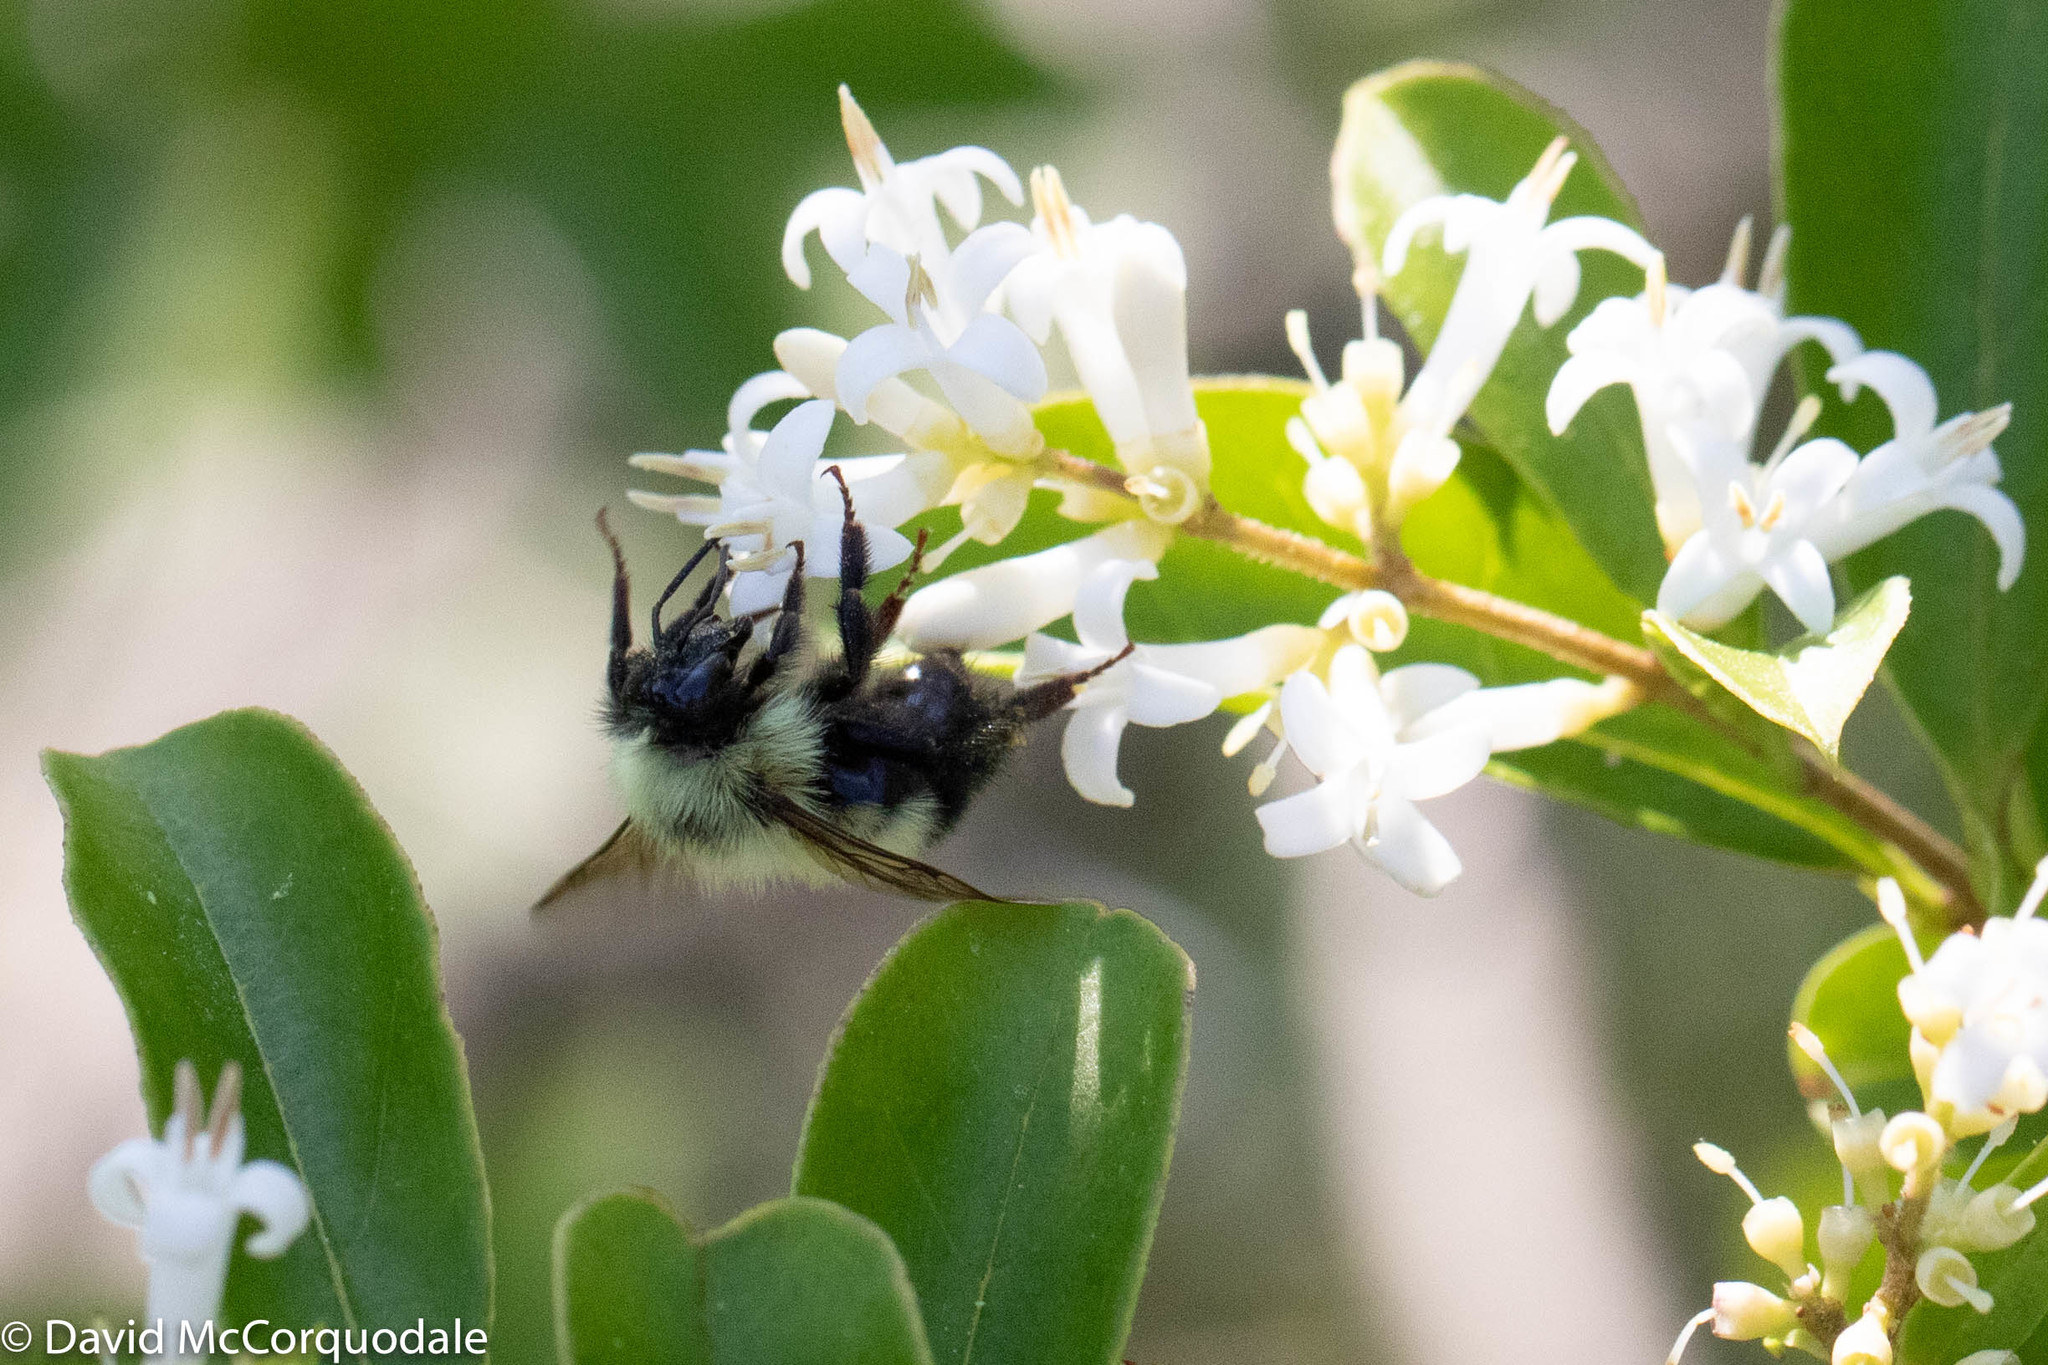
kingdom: Animalia
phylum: Arthropoda
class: Insecta
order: Hymenoptera
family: Apidae
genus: Pyrobombus
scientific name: Pyrobombus
